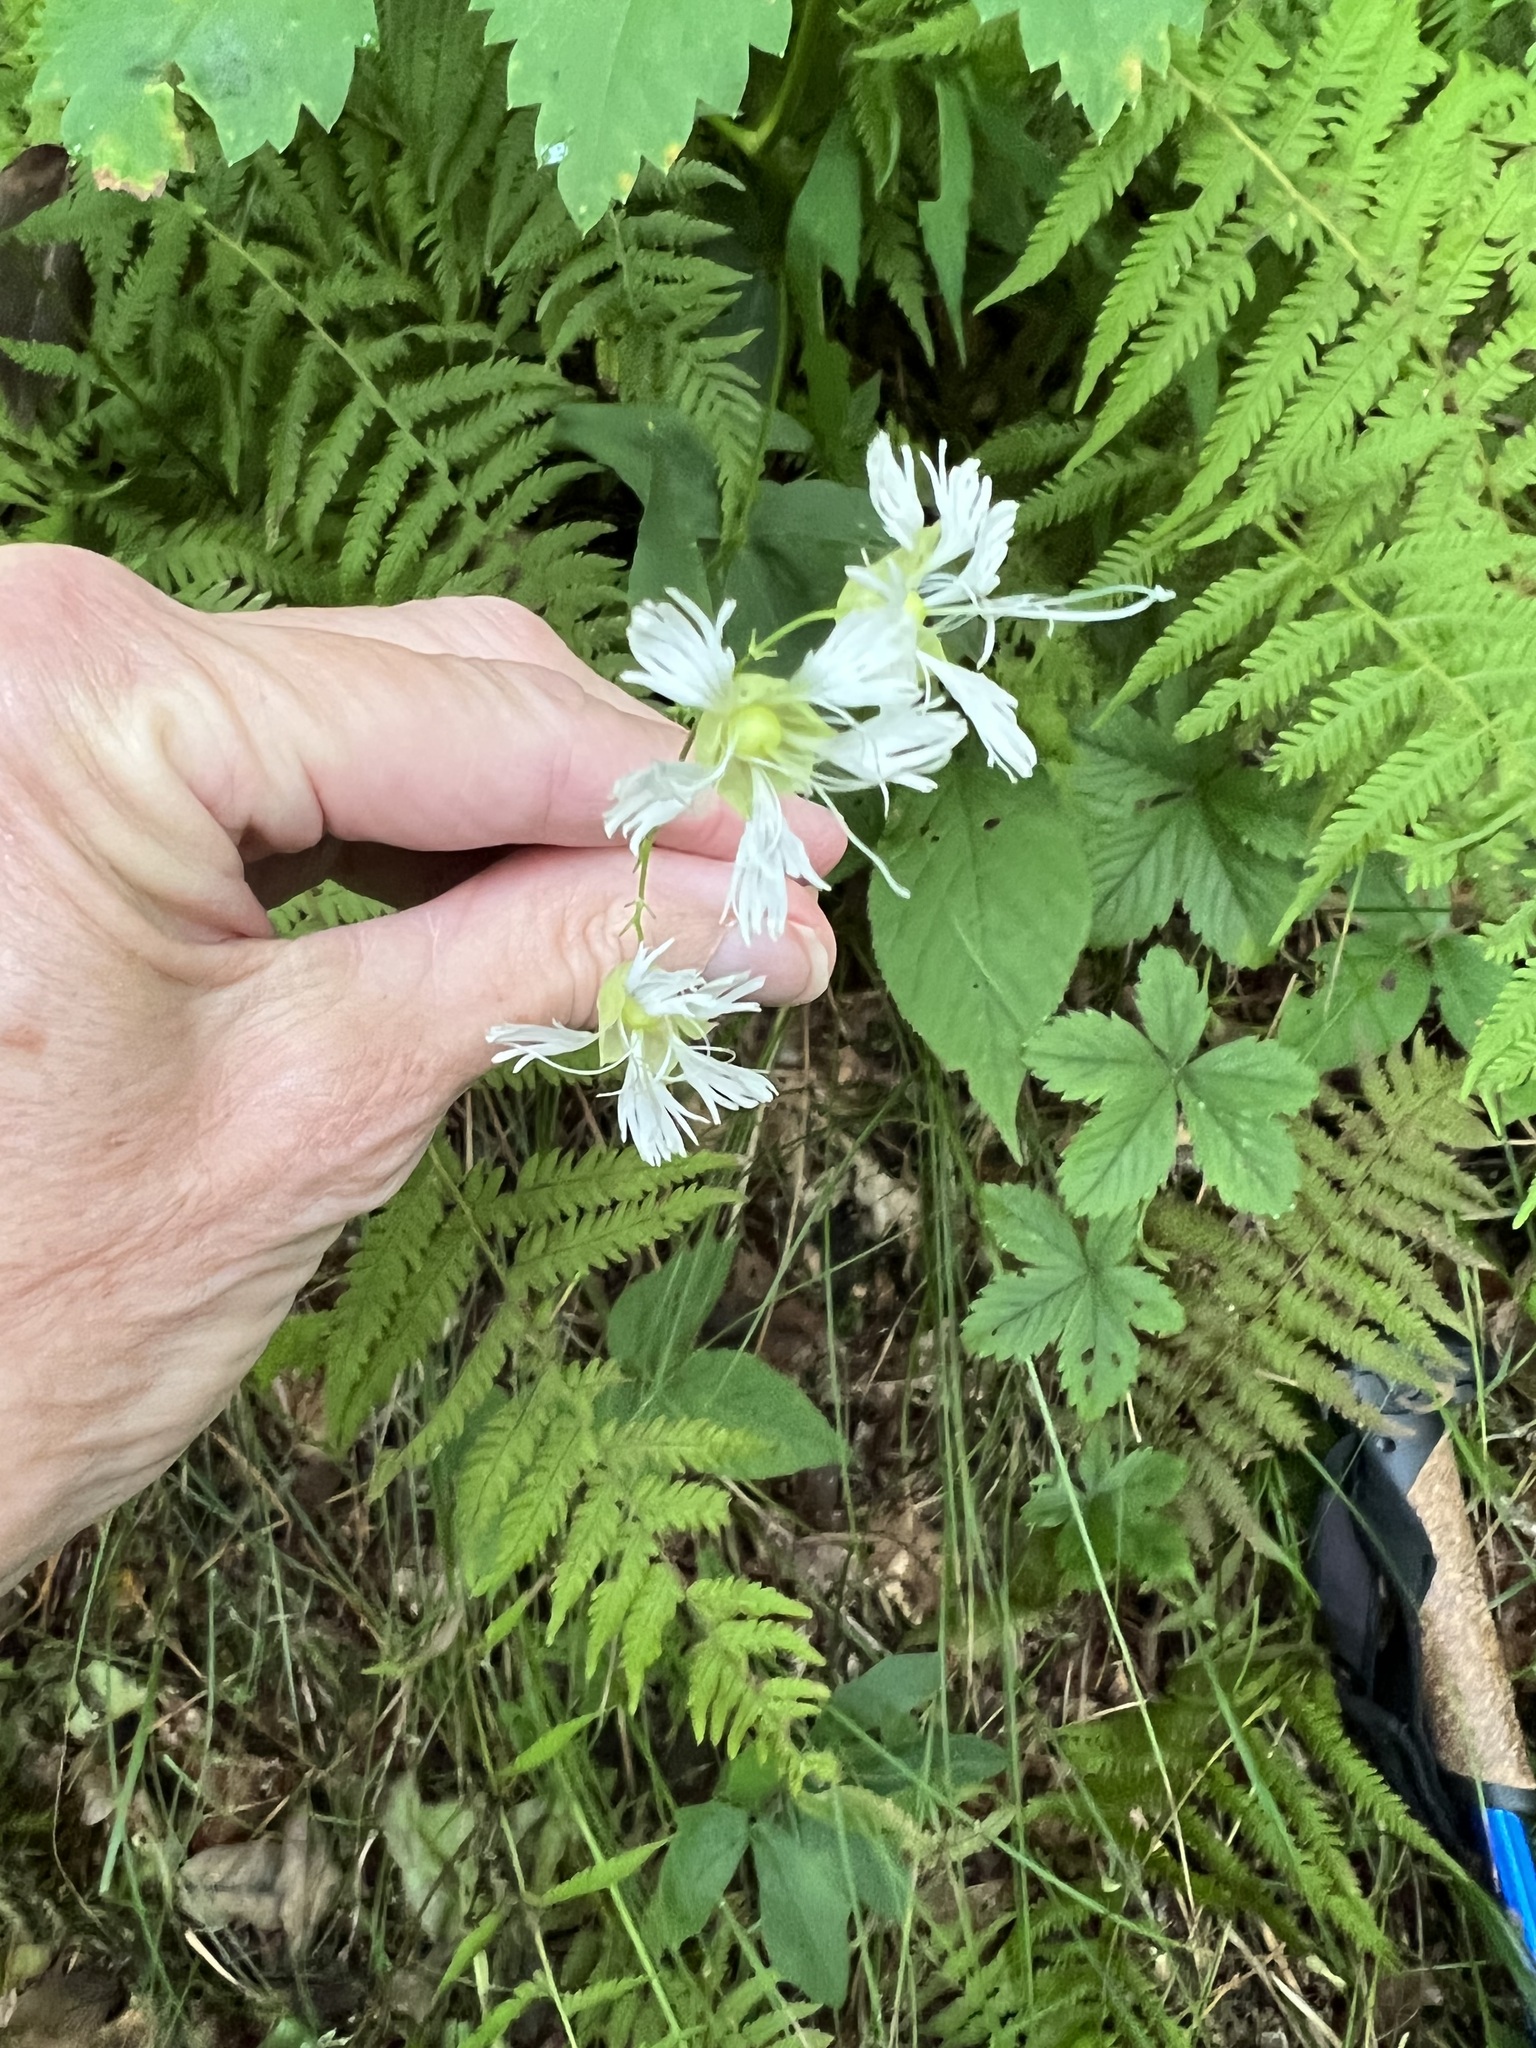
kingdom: Plantae
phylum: Tracheophyta
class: Magnoliopsida
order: Caryophyllales
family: Caryophyllaceae
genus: Silene
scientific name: Silene stellata
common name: Starry campion
